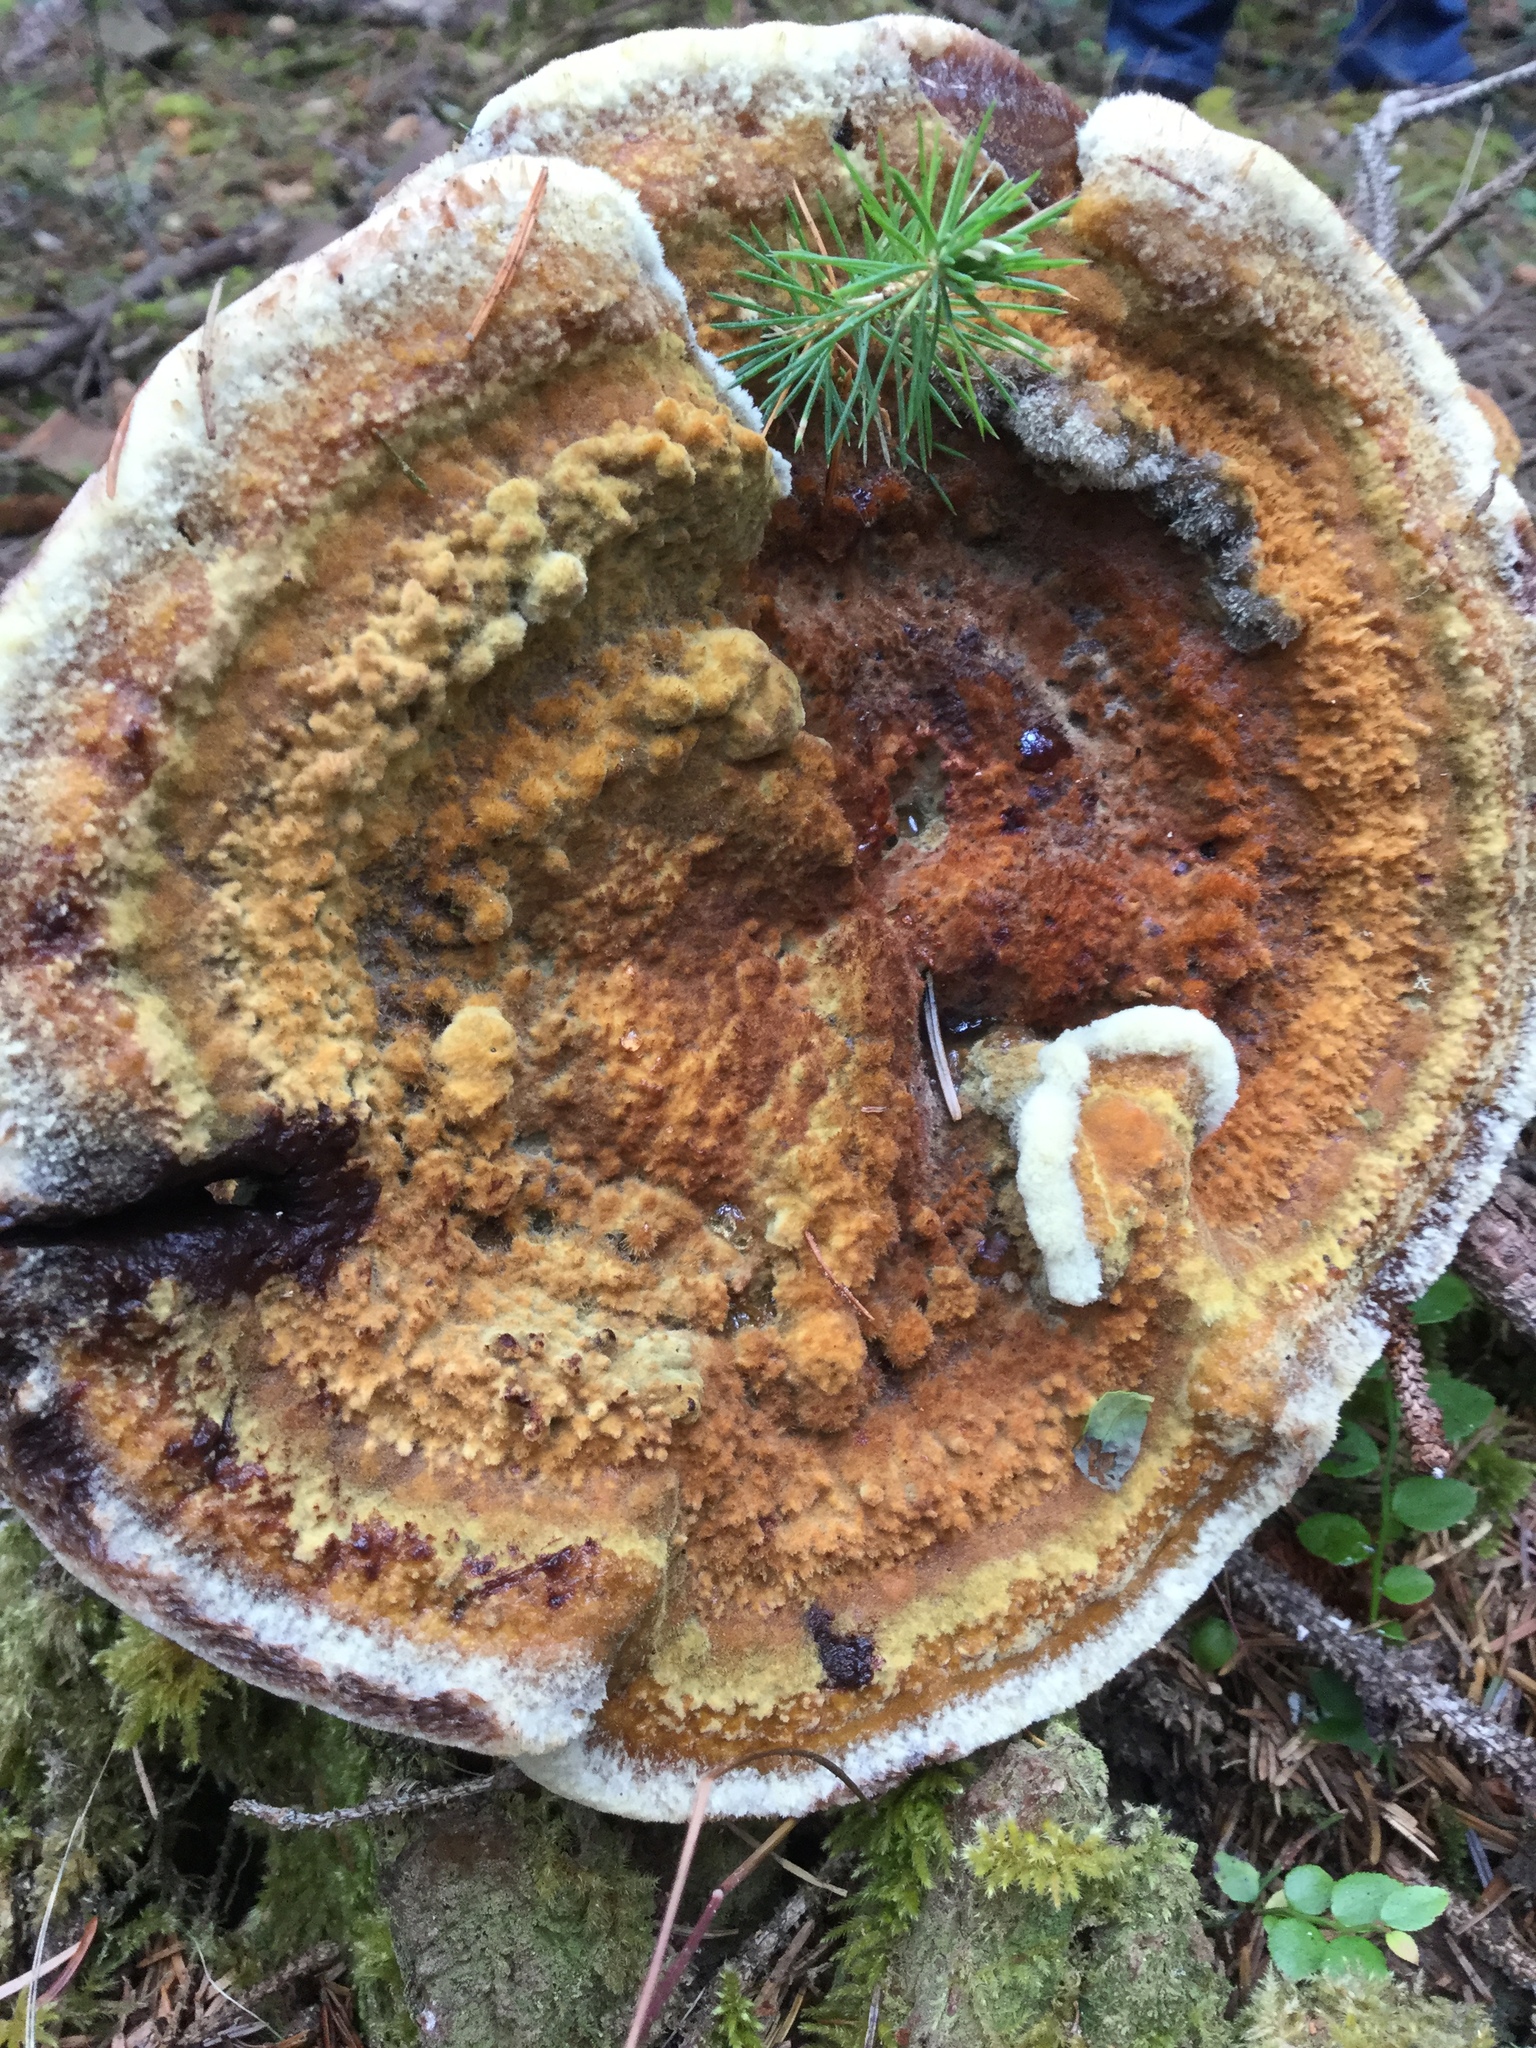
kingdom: Fungi
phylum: Basidiomycota
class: Agaricomycetes
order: Polyporales
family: Laetiporaceae
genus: Phaeolus
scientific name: Phaeolus schweinitzii
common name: Dyer's mazegill
